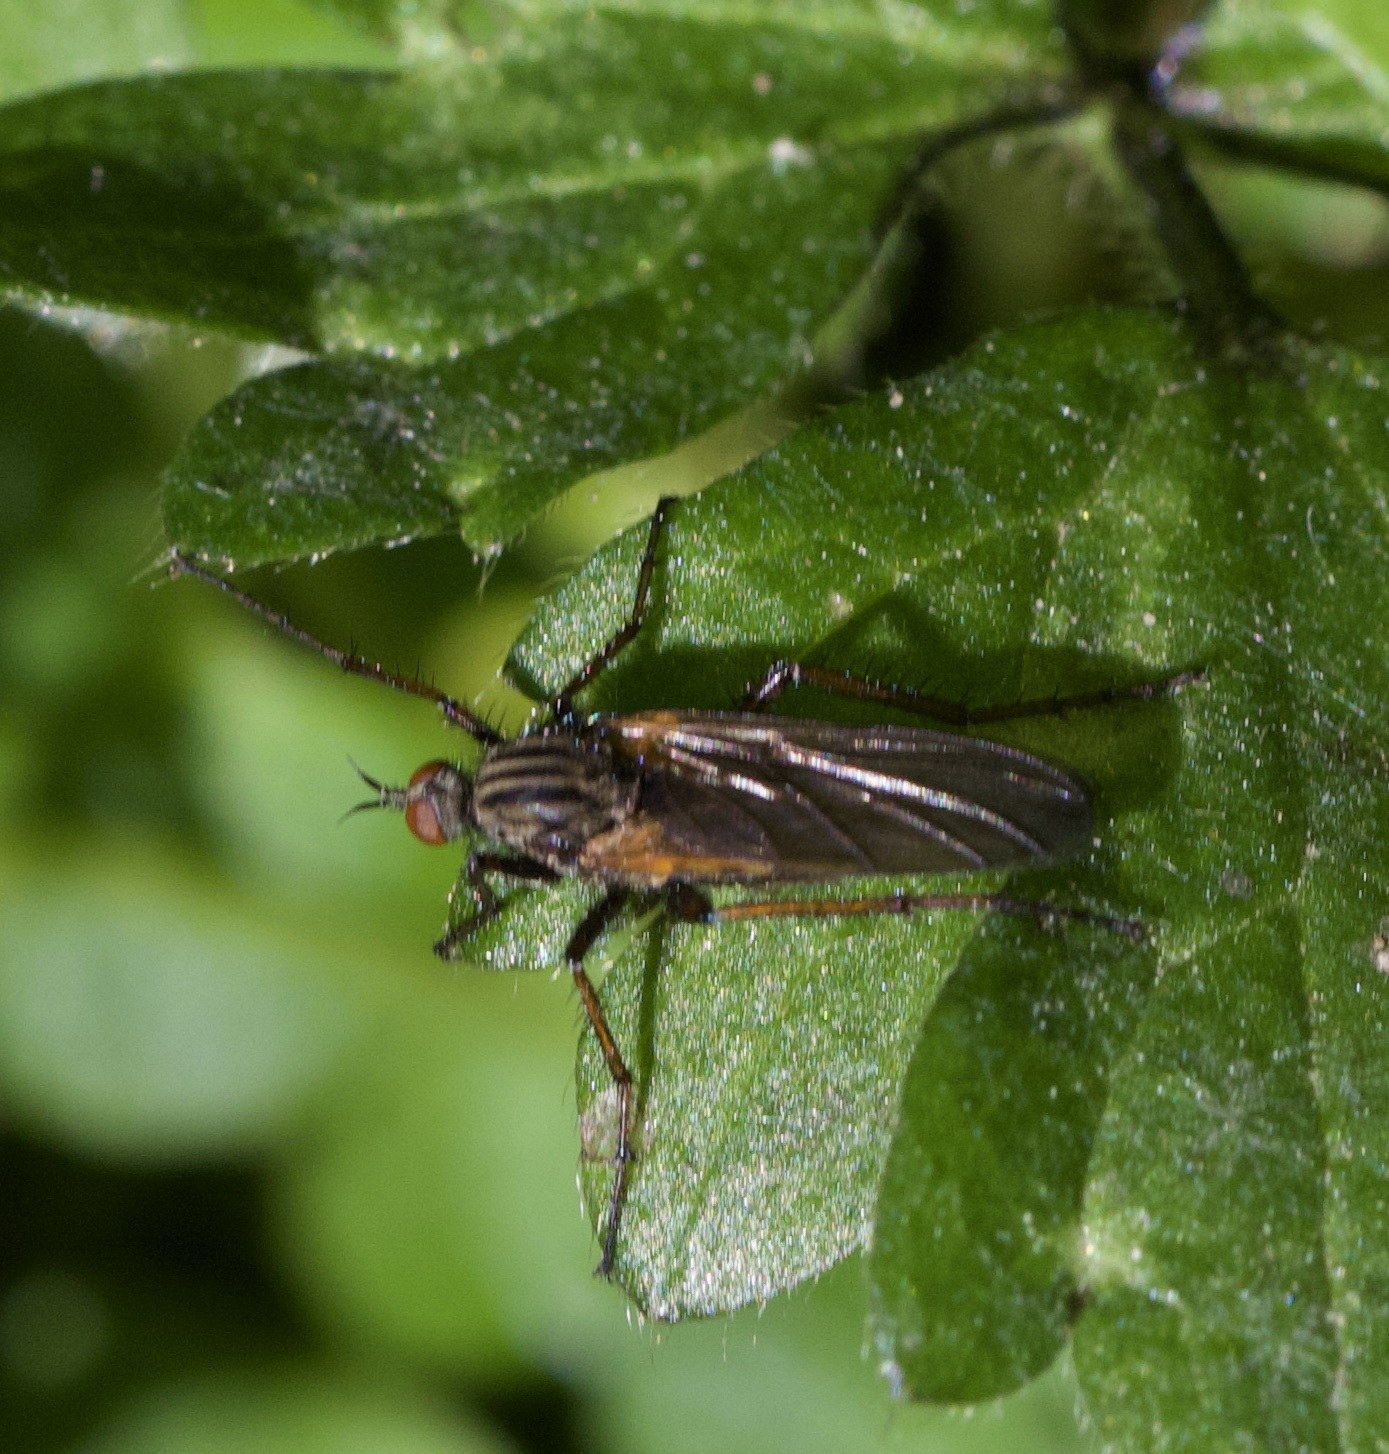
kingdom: Animalia
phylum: Arthropoda
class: Insecta
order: Diptera
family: Empididae
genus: Empis
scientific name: Empis tessellata
